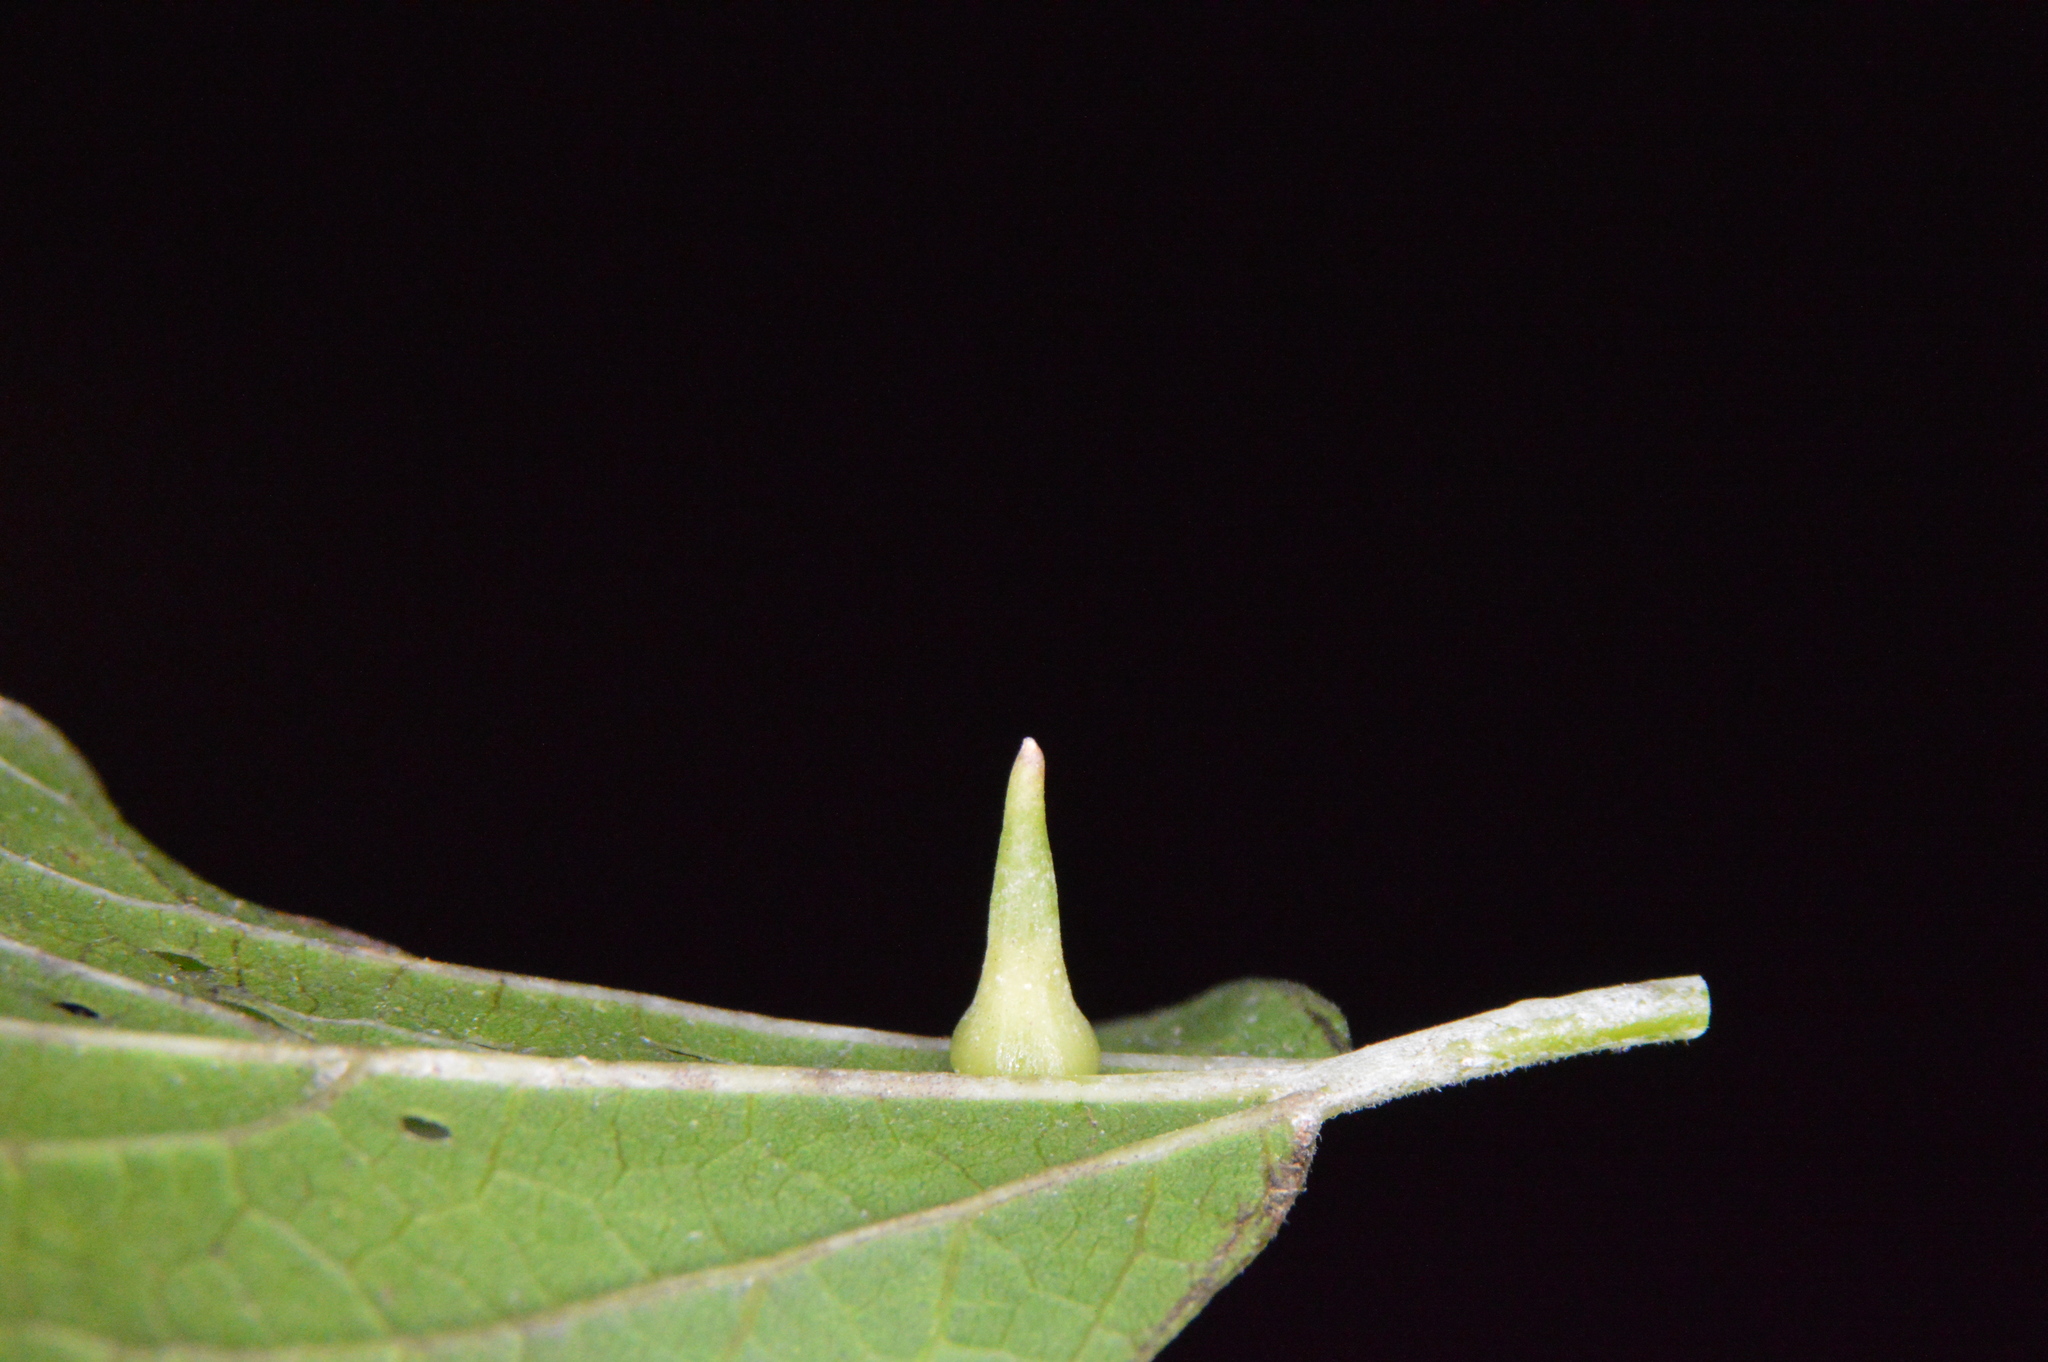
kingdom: Animalia
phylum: Arthropoda
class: Insecta
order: Diptera
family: Cecidomyiidae
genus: Celticecis
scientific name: Celticecis subulata
